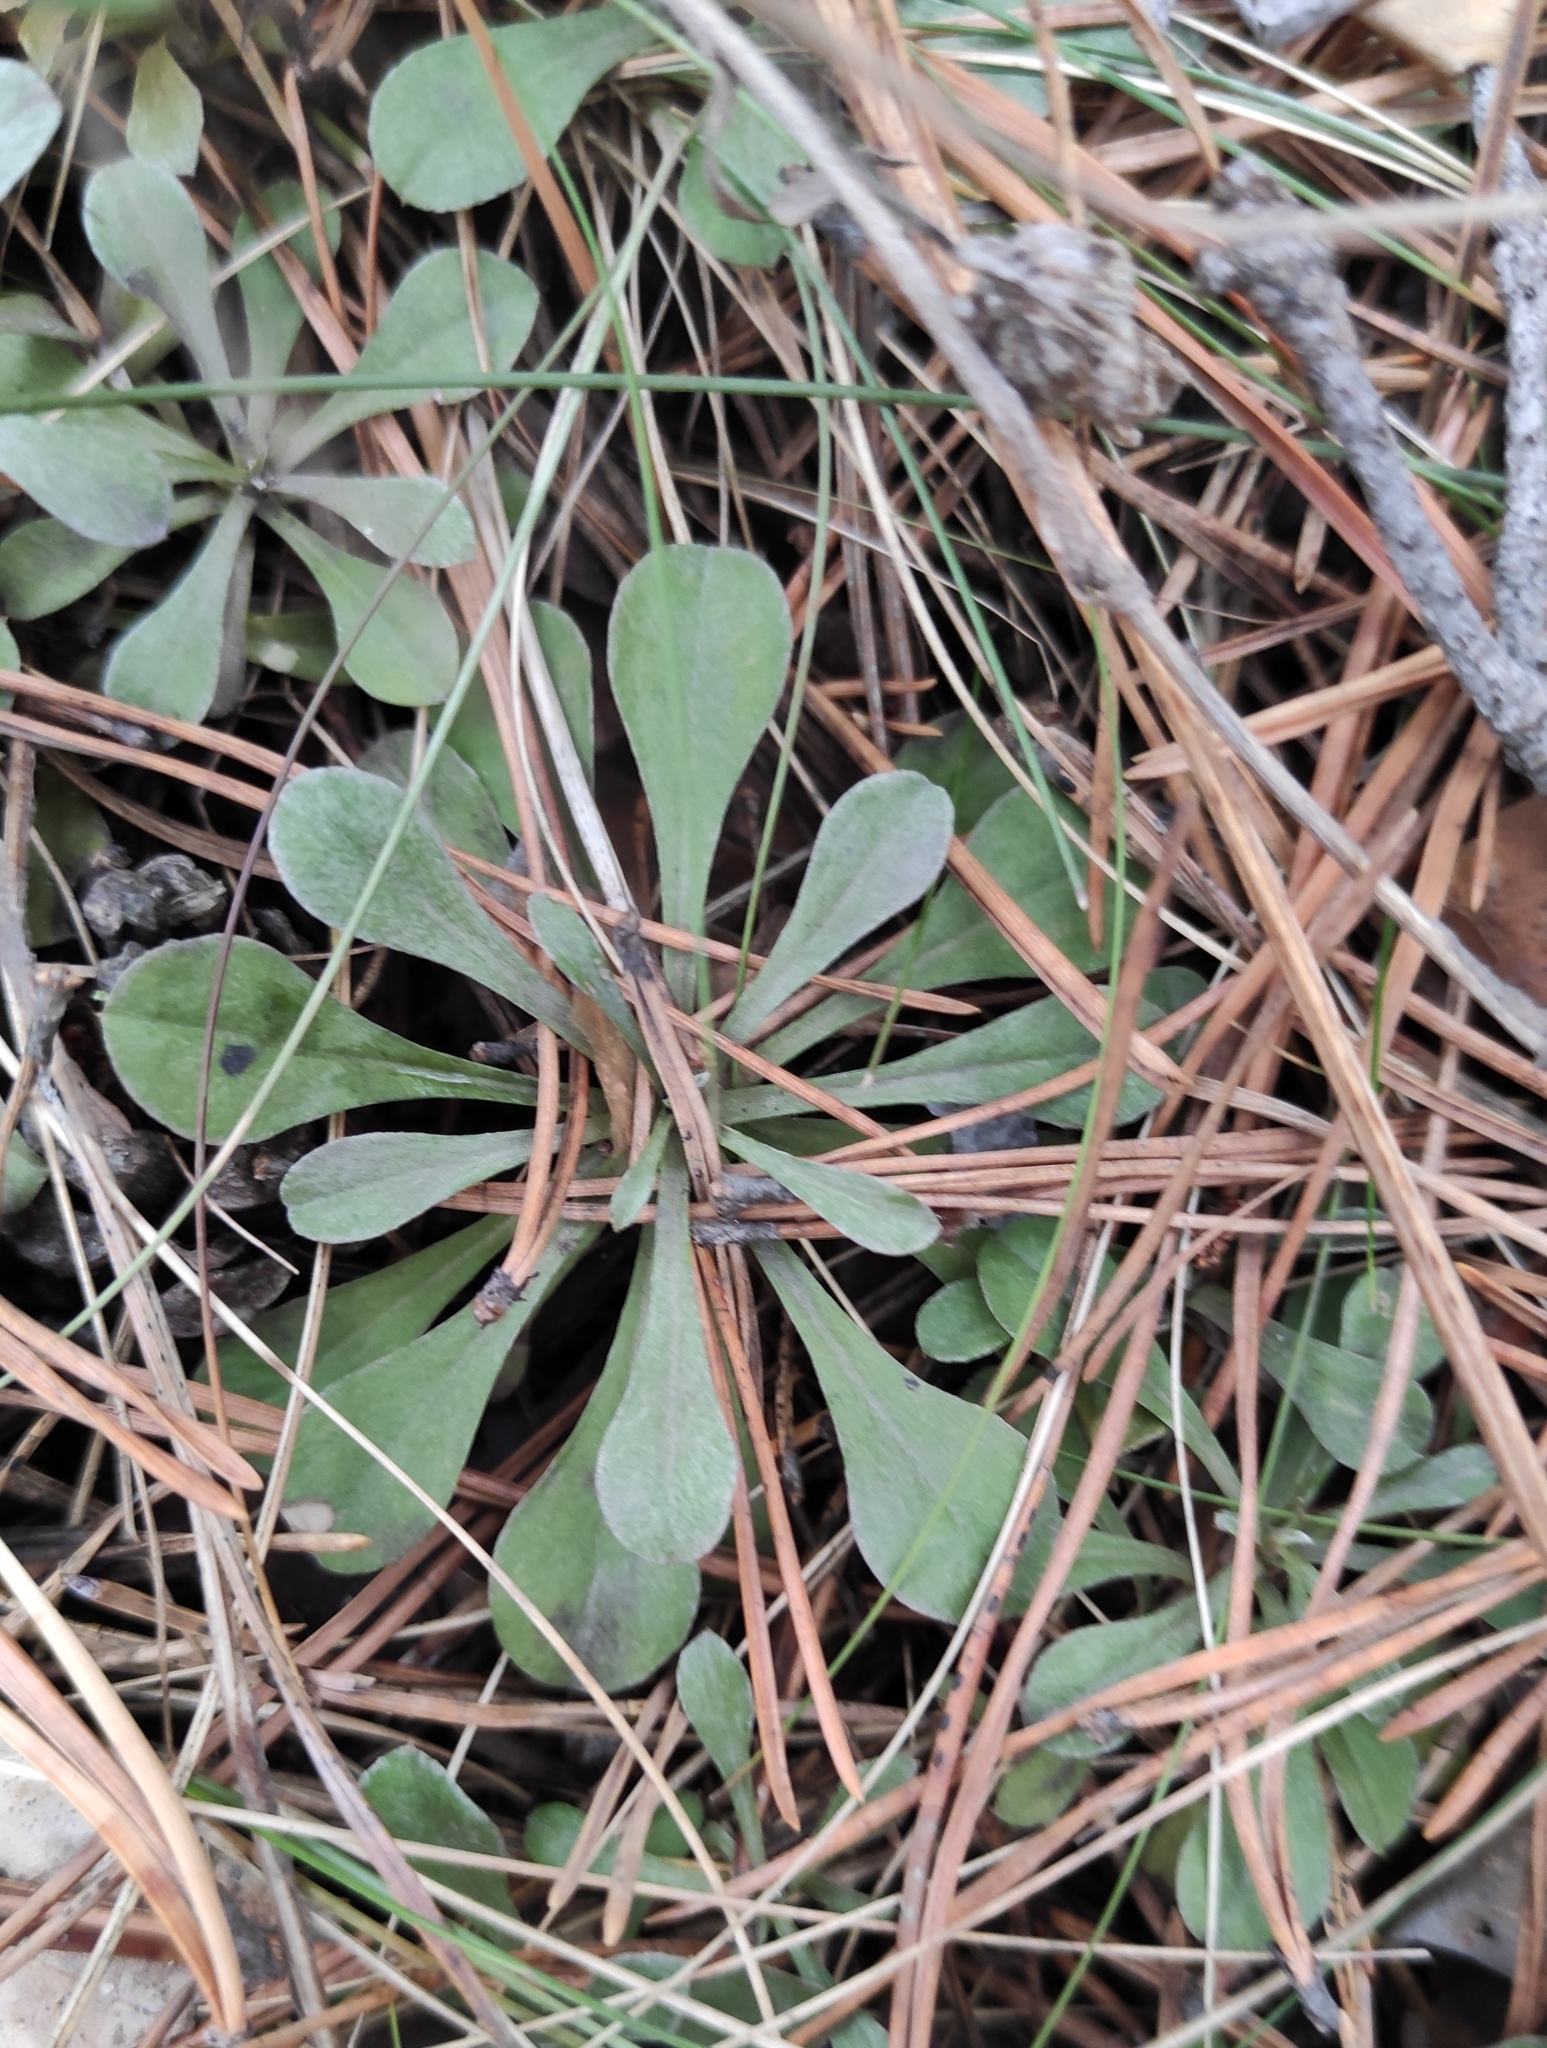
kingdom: Plantae
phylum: Tracheophyta
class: Magnoliopsida
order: Asterales
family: Asteraceae
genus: Antennaria
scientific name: Antennaria dioica
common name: Mountain everlasting
